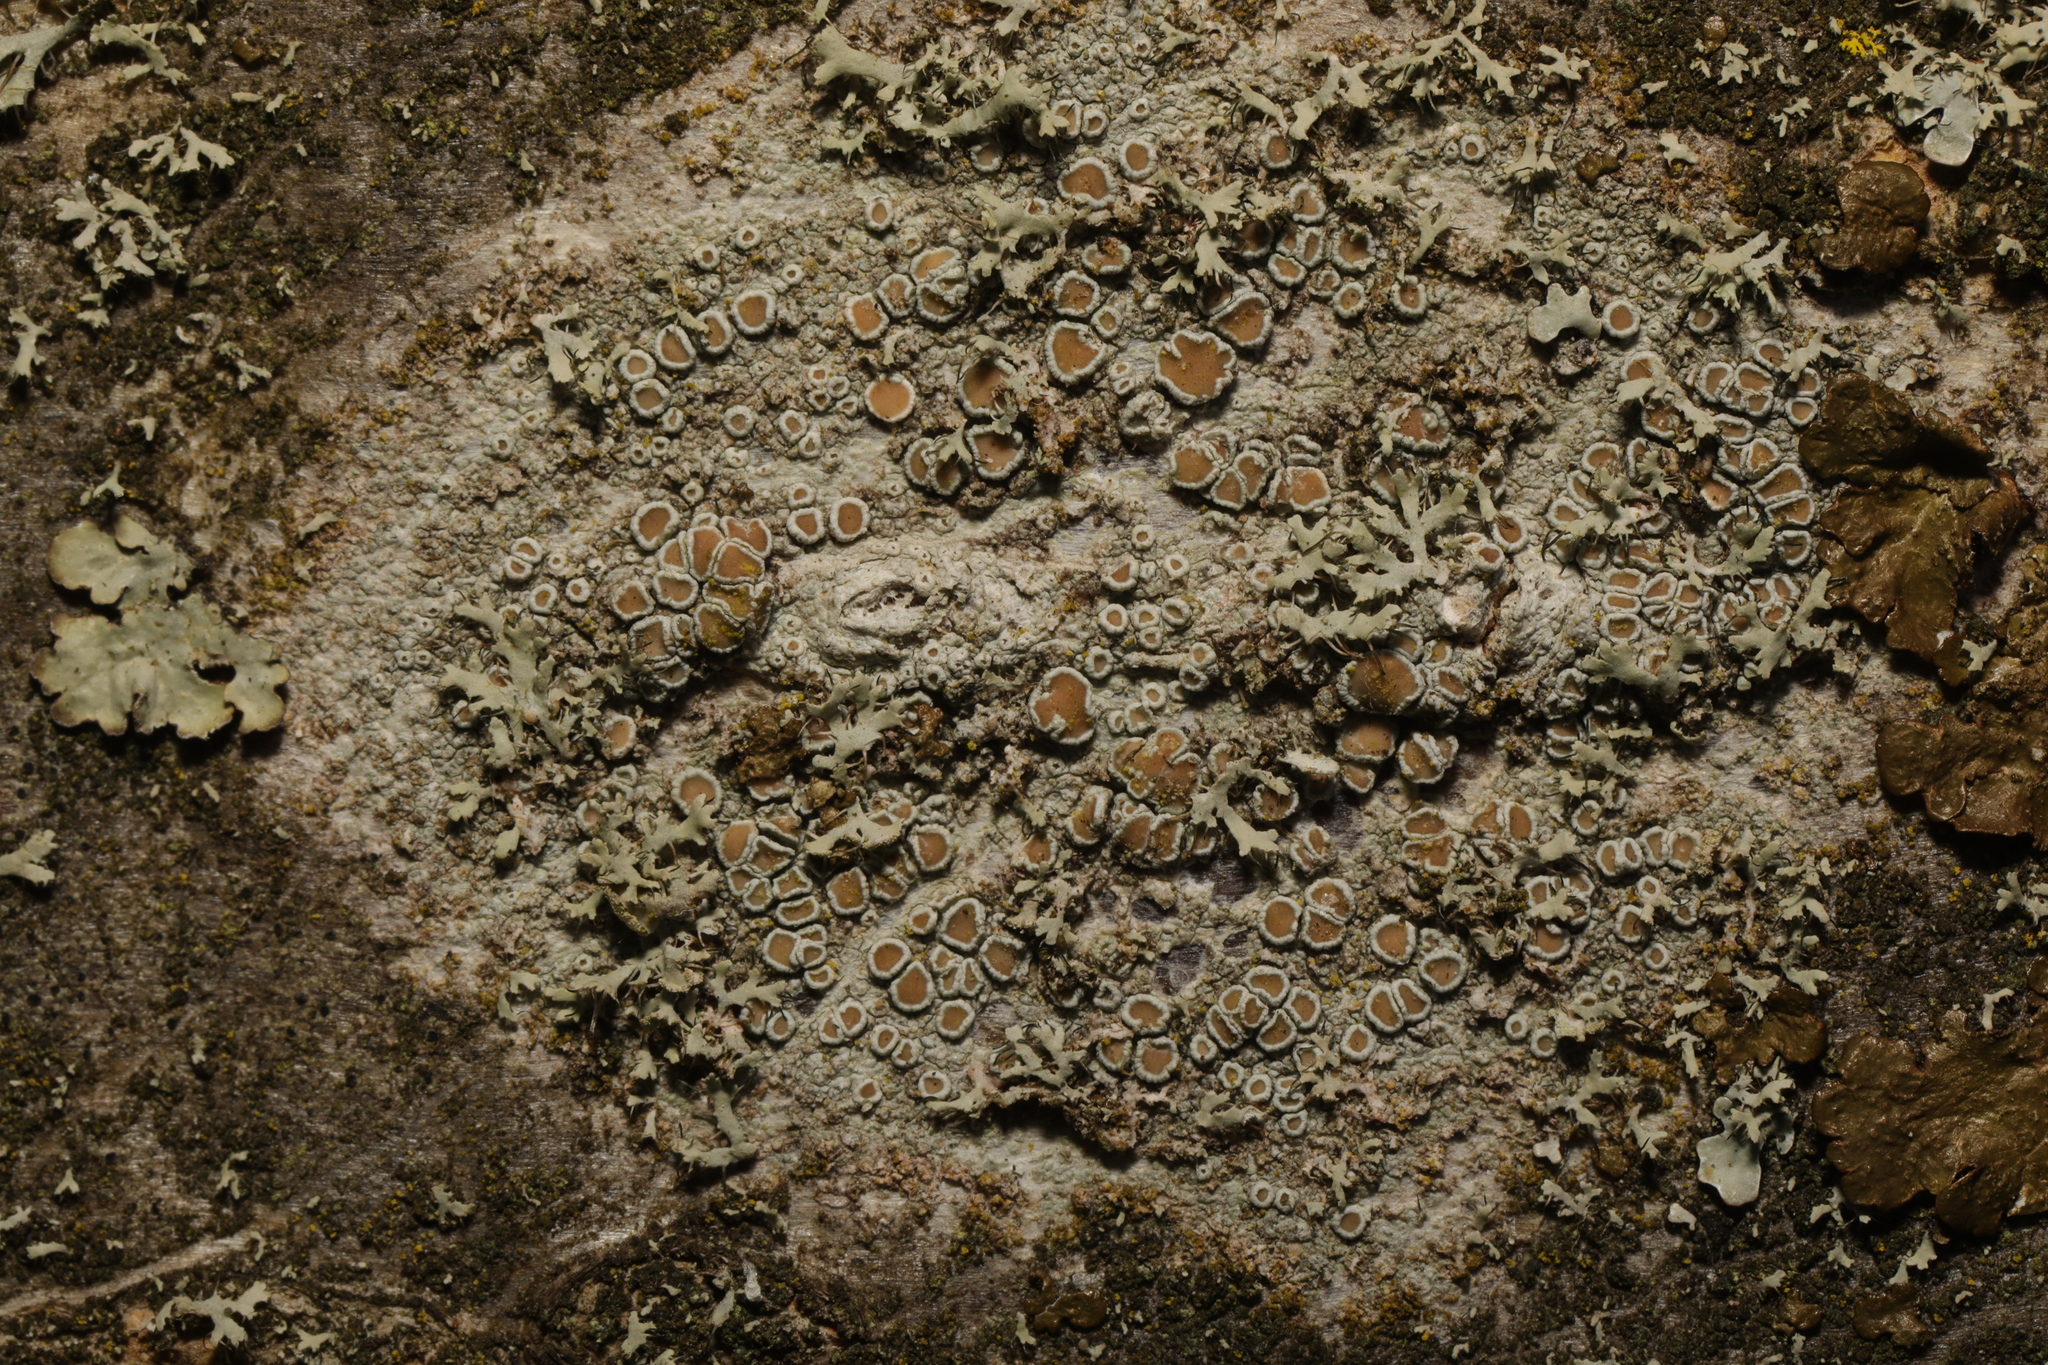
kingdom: Fungi
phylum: Ascomycota
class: Lecanoromycetes
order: Lecanorales
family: Lecanoraceae
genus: Lecanora
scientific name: Lecanora
